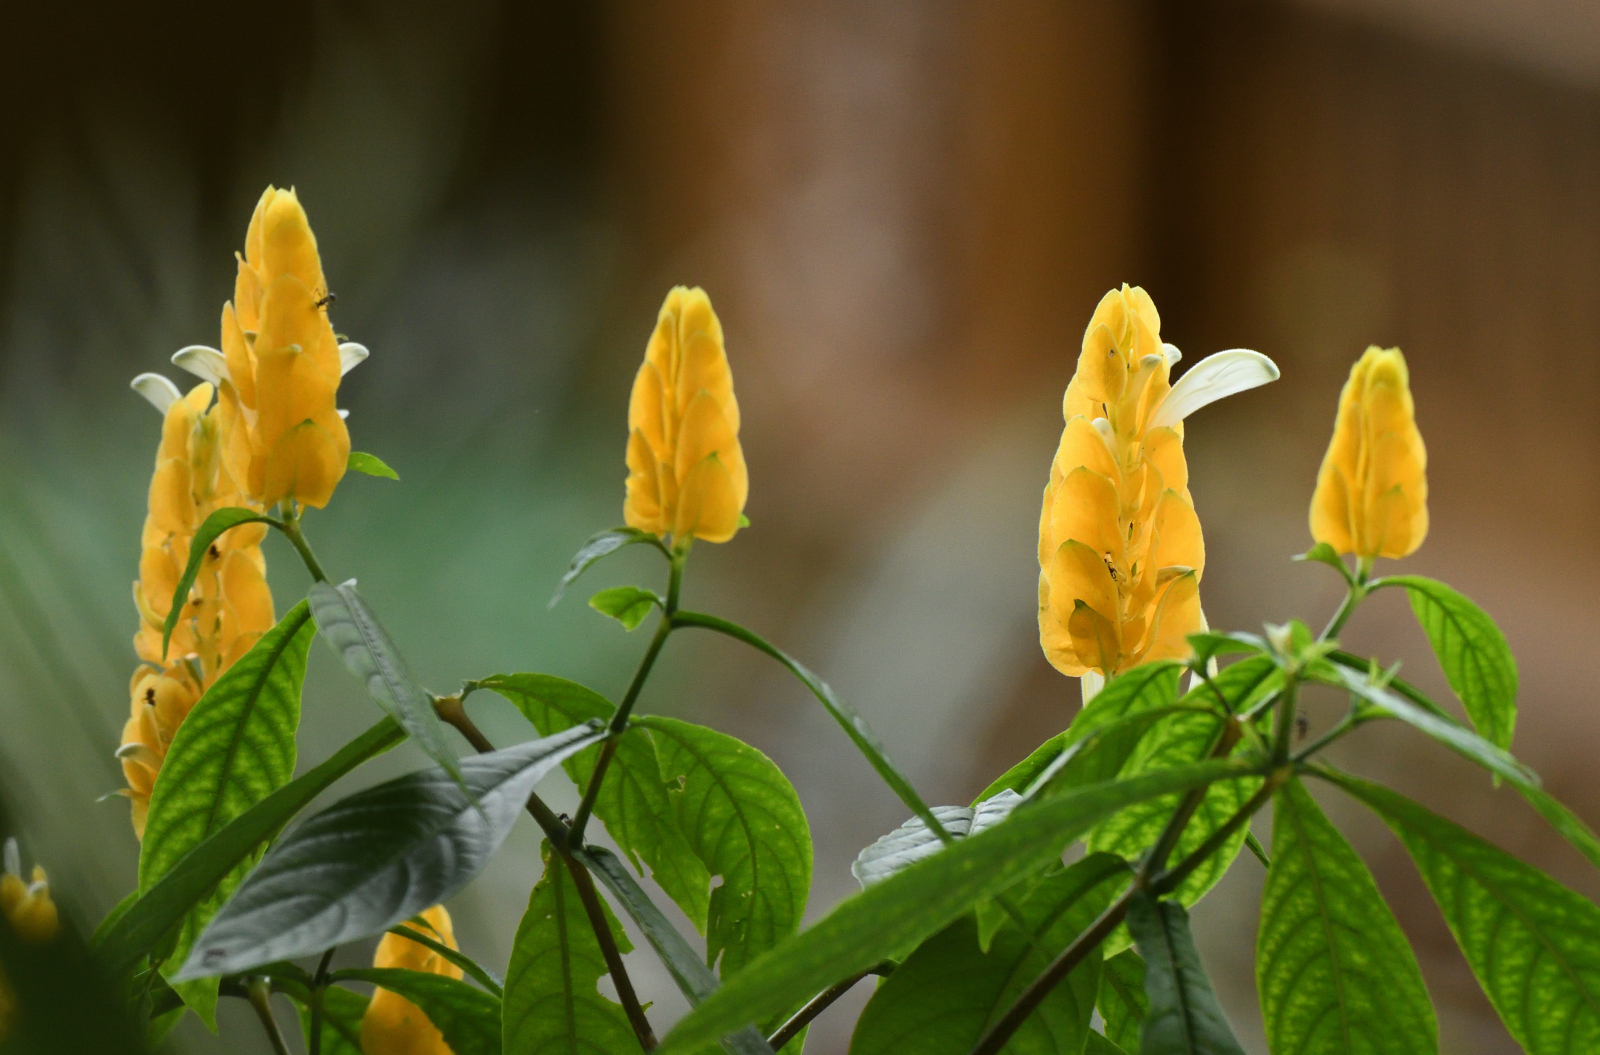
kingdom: Plantae
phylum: Tracheophyta
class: Magnoliopsida
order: Lamiales
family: Acanthaceae
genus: Pachystachys
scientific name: Pachystachys lutea
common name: Golden shrimp-plant
